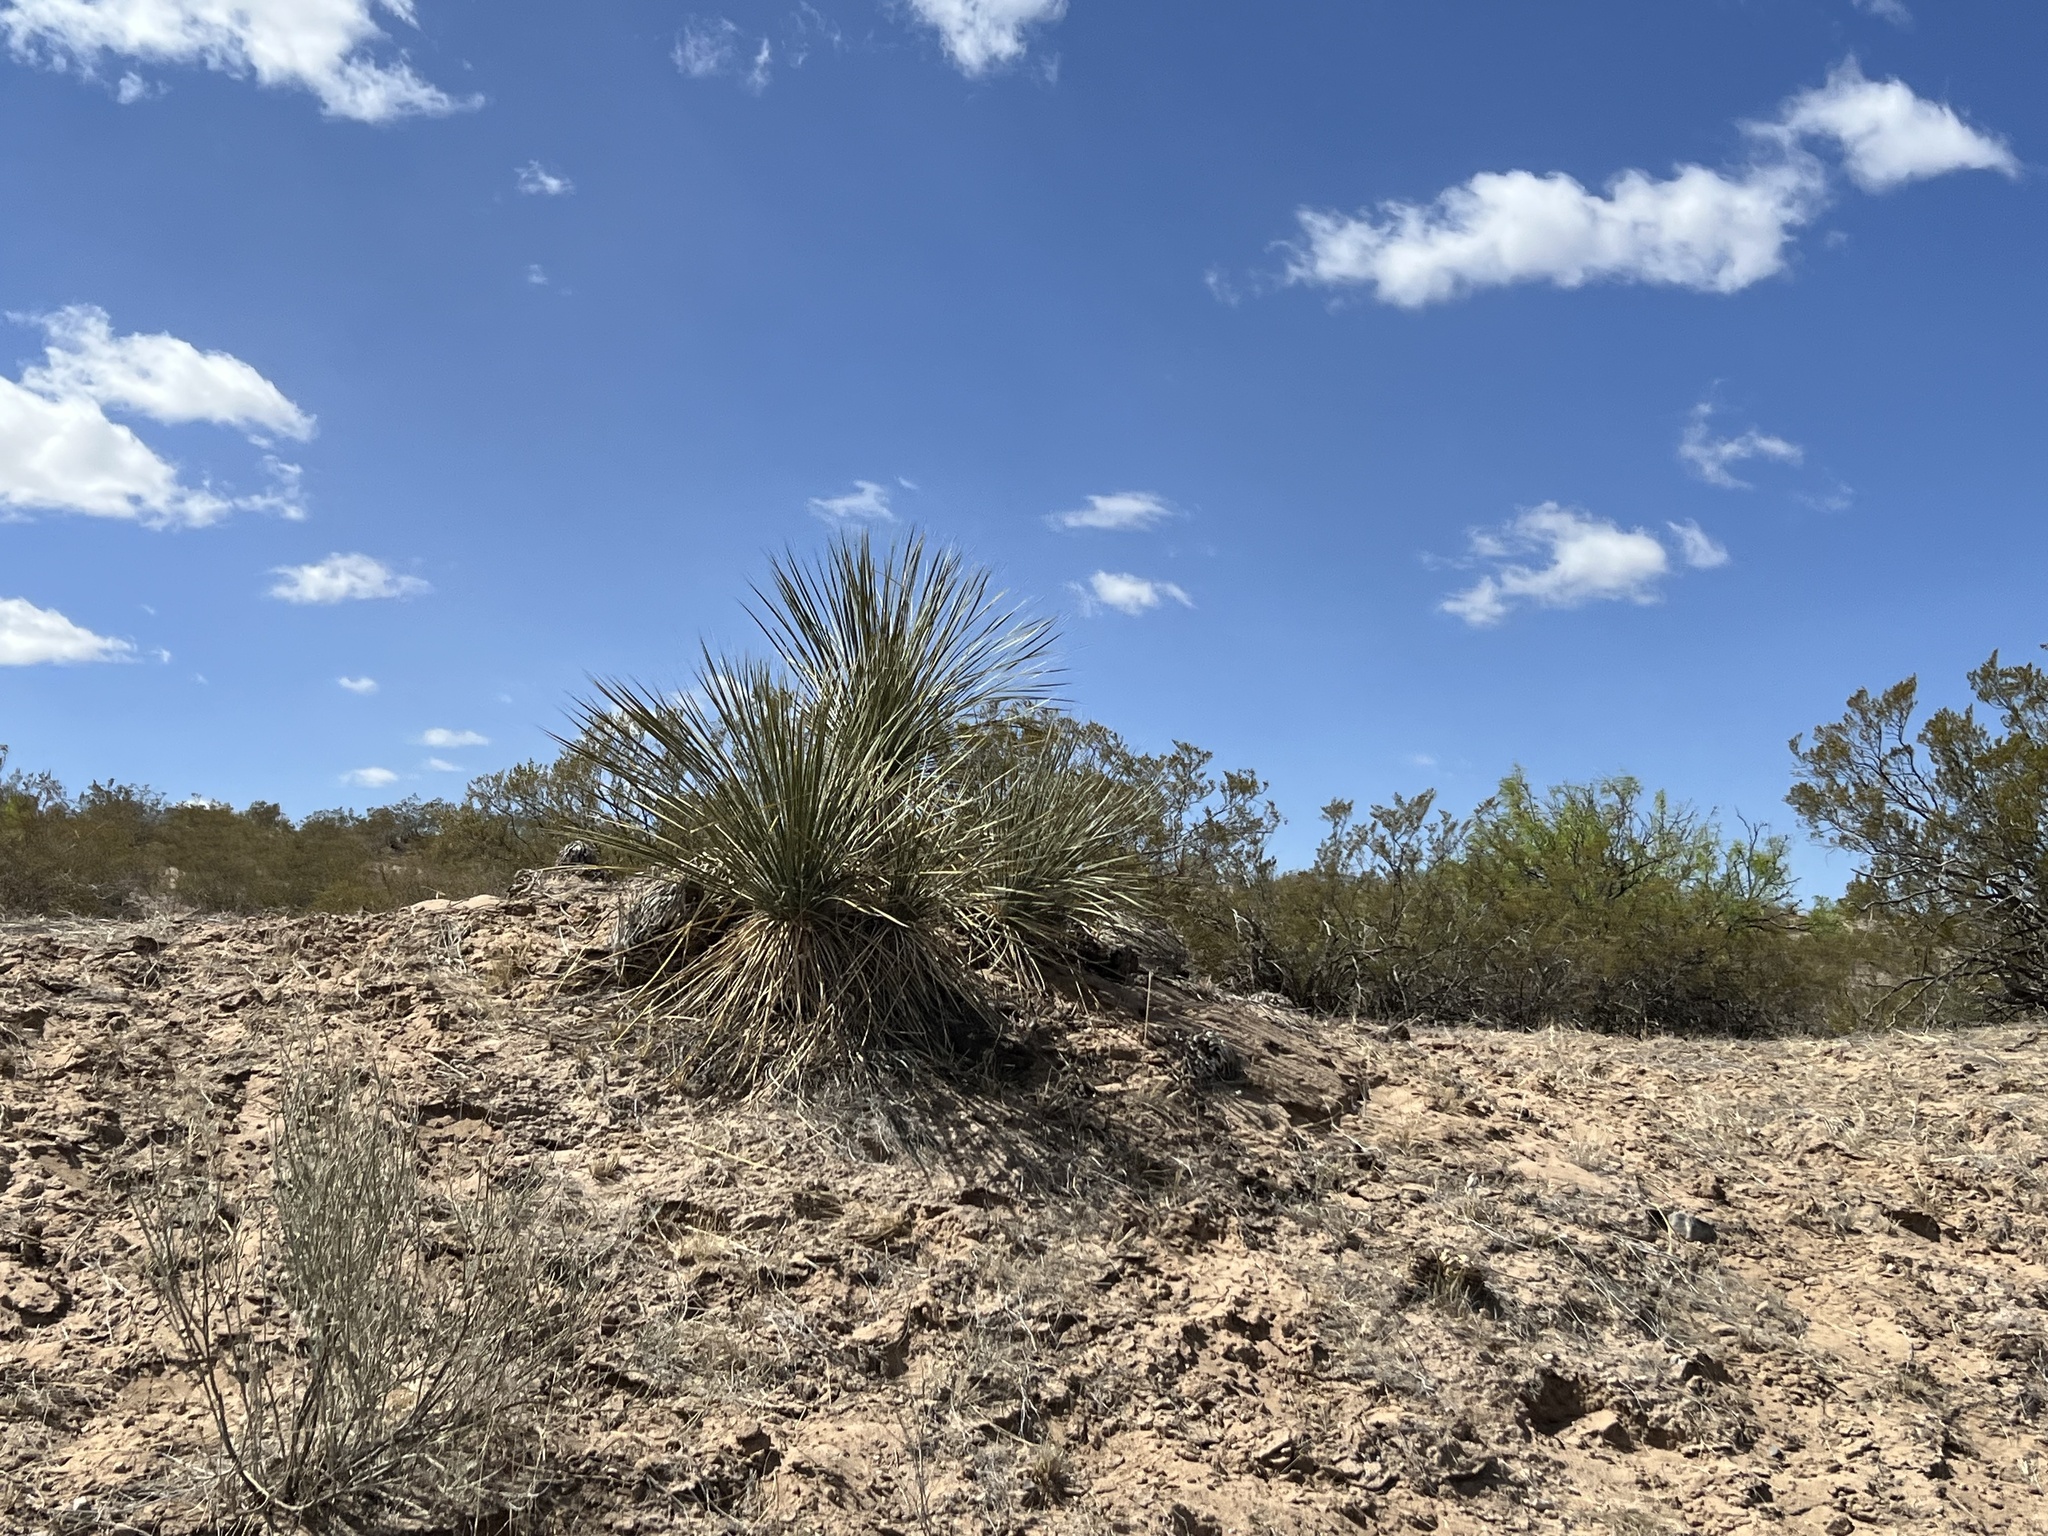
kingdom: Plantae
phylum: Tracheophyta
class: Liliopsida
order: Asparagales
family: Asparagaceae
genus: Yucca
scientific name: Yucca elata
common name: Palmella
